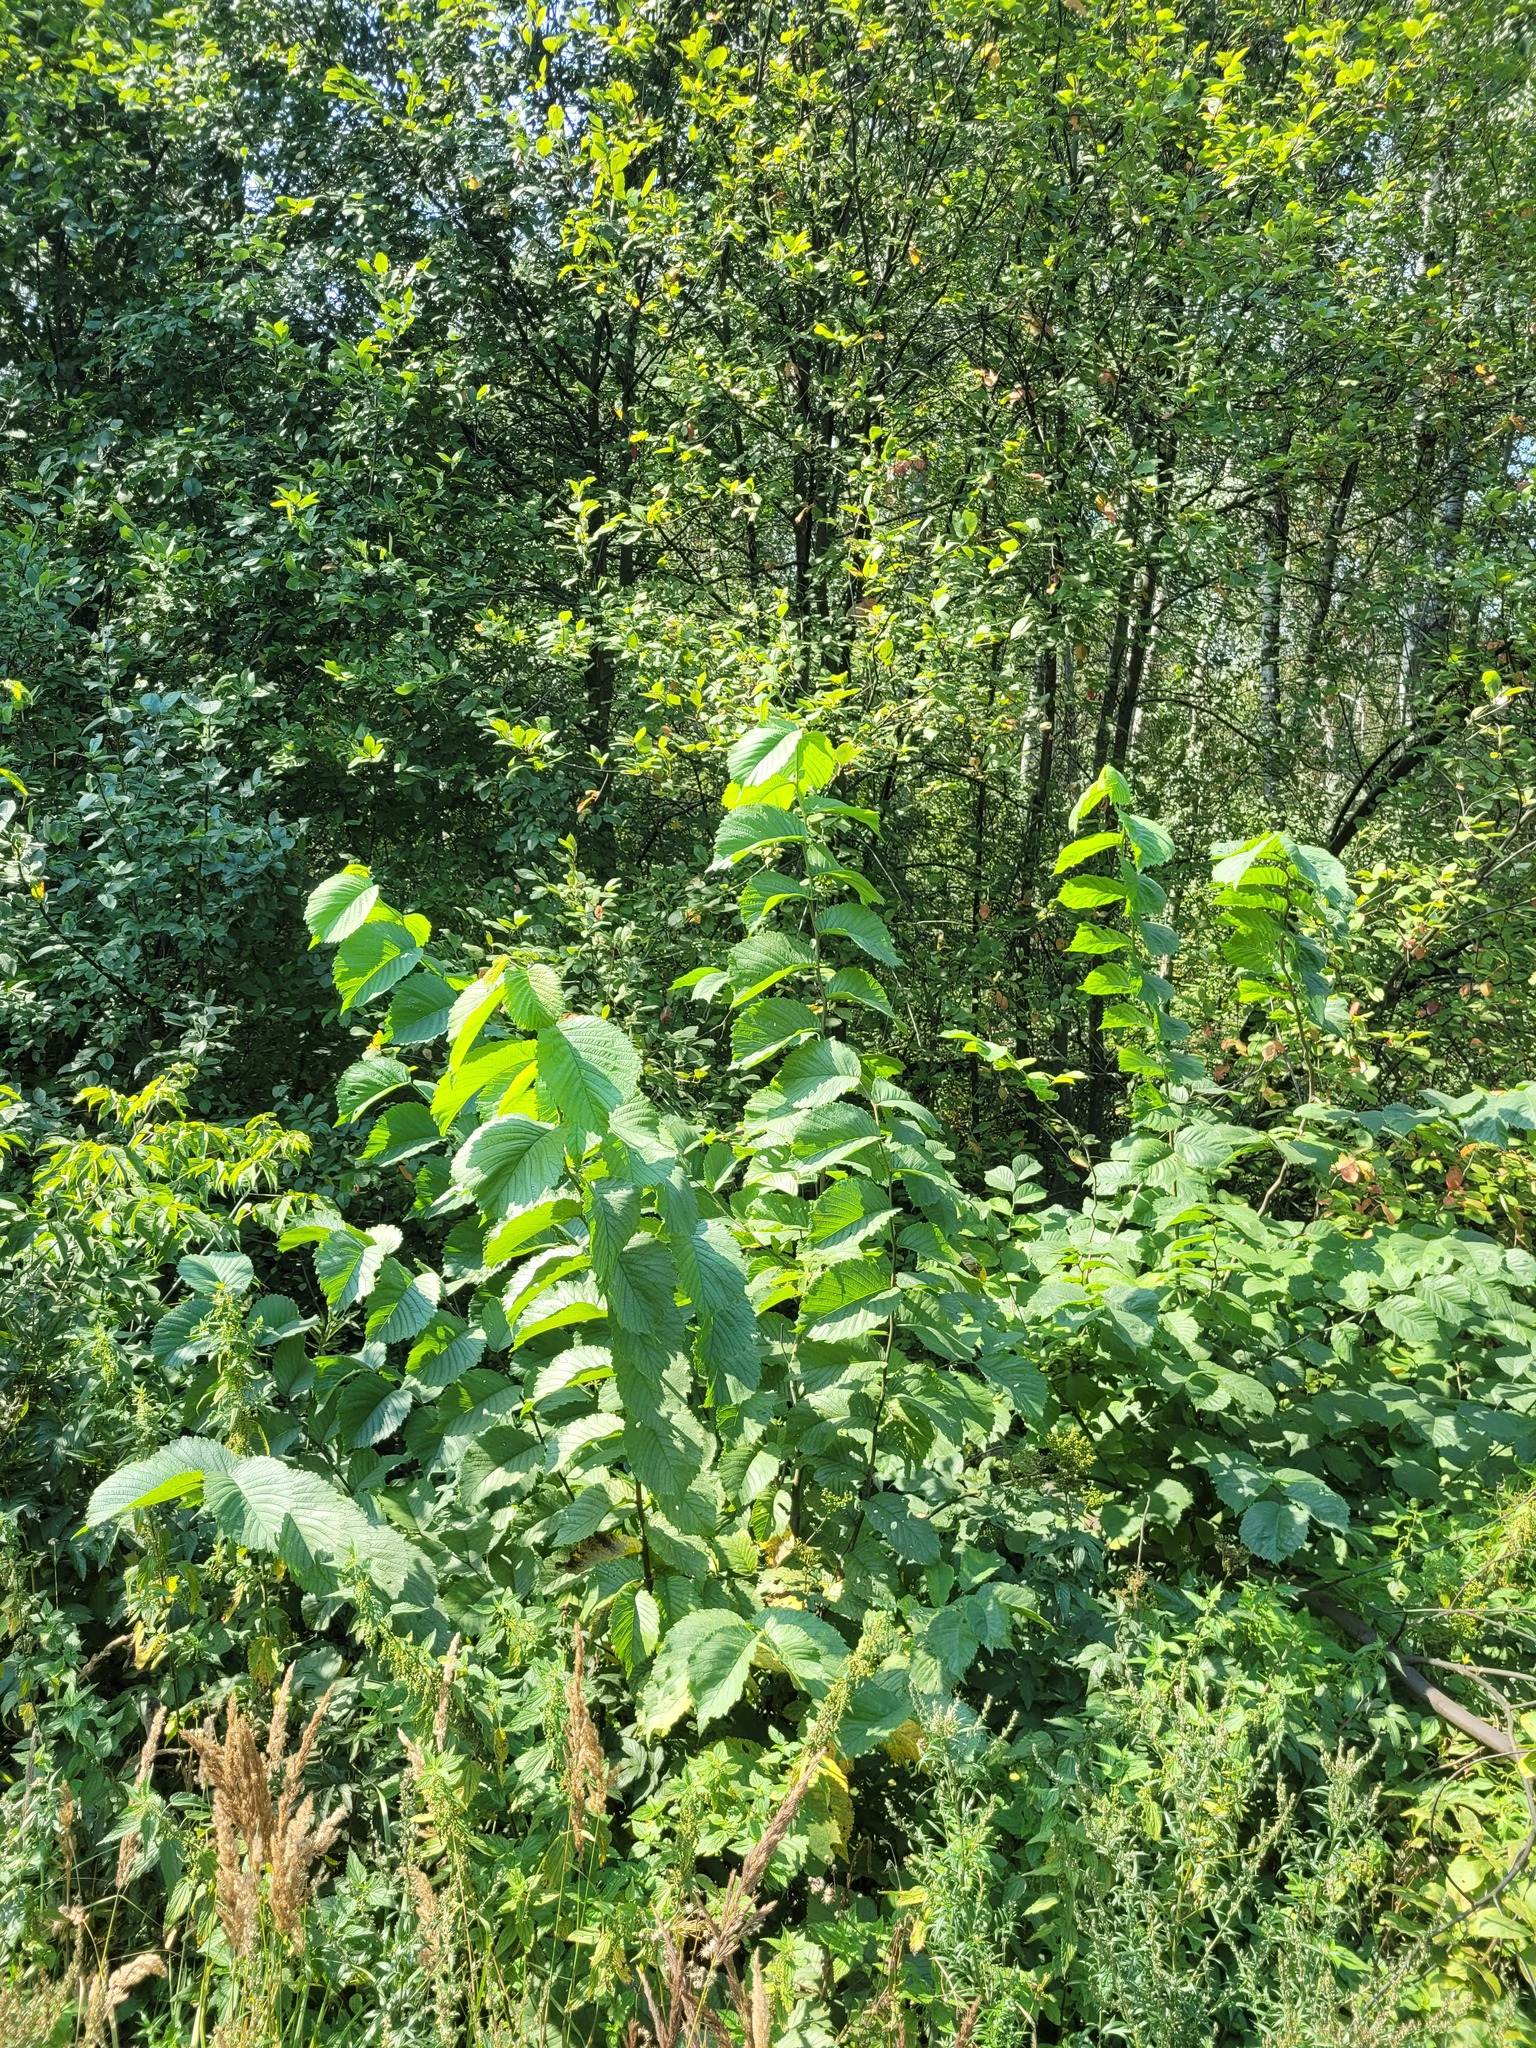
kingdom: Plantae
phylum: Tracheophyta
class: Magnoliopsida
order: Rosales
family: Ulmaceae
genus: Ulmus
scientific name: Ulmus glabra
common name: Wych elm
